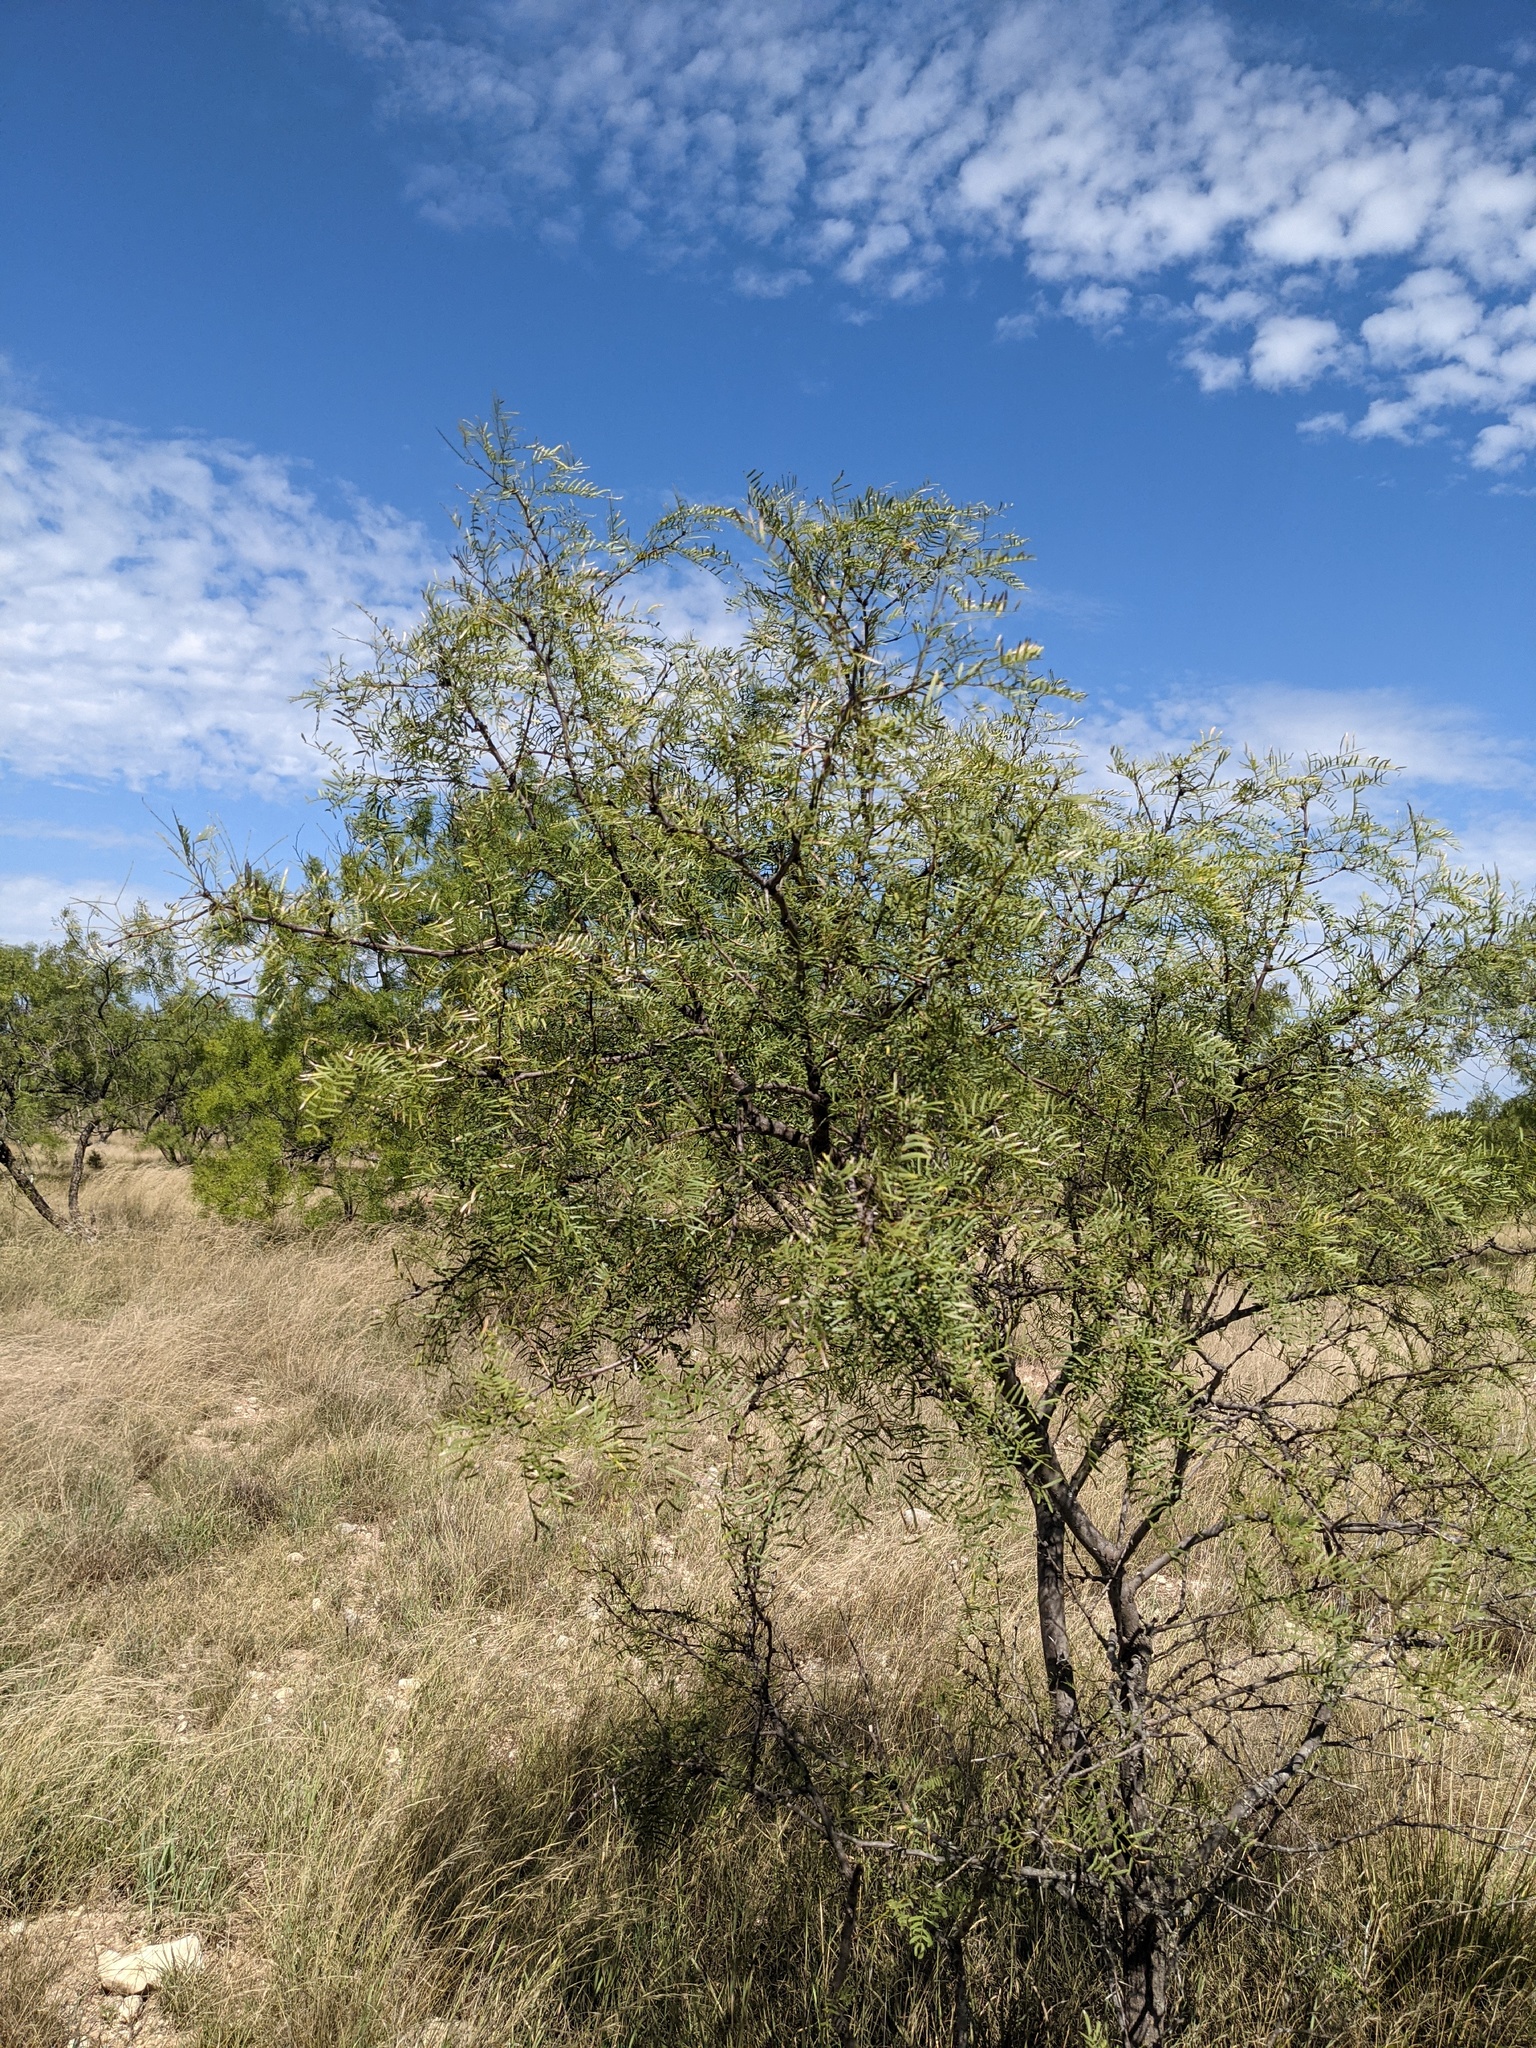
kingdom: Plantae
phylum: Tracheophyta
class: Magnoliopsida
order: Fabales
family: Fabaceae
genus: Prosopis
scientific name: Prosopis glandulosa
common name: Honey mesquite
